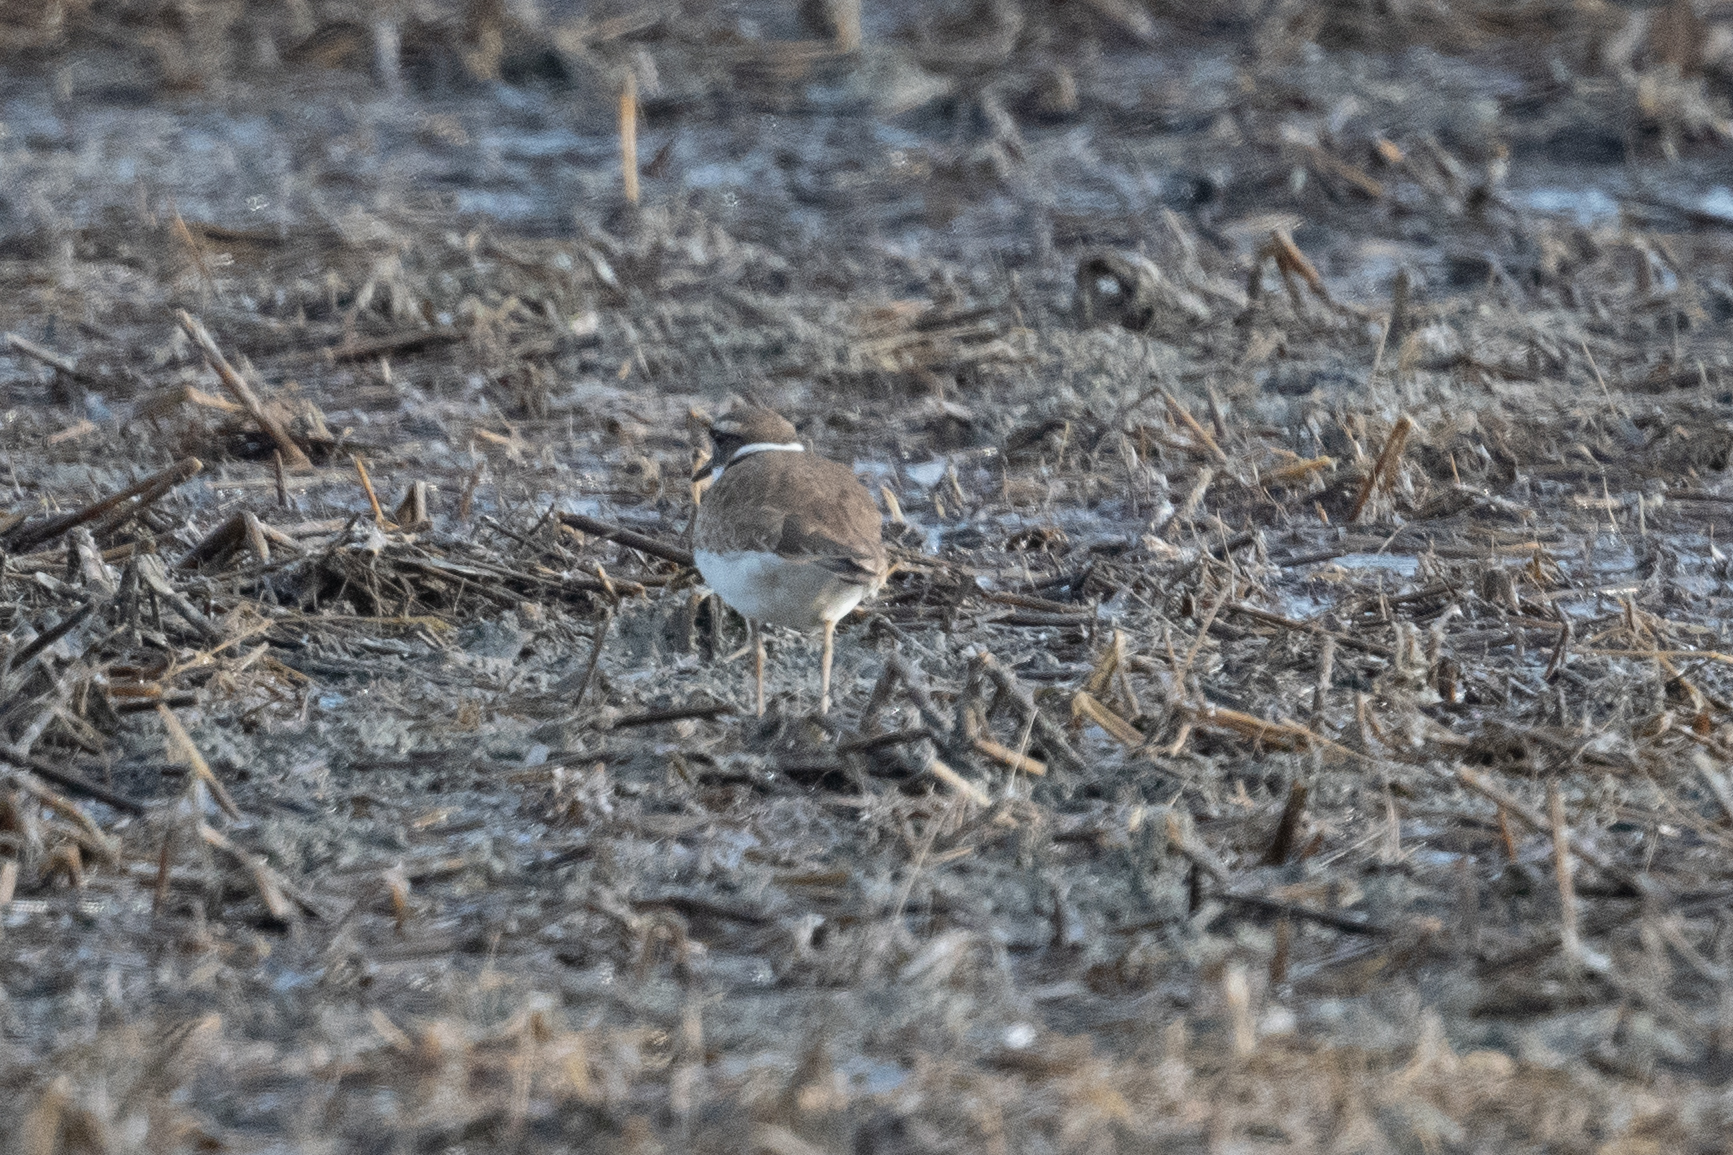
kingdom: Animalia
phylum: Chordata
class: Aves
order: Charadriiformes
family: Charadriidae
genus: Charadrius
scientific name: Charadrius vociferus
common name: Killdeer
